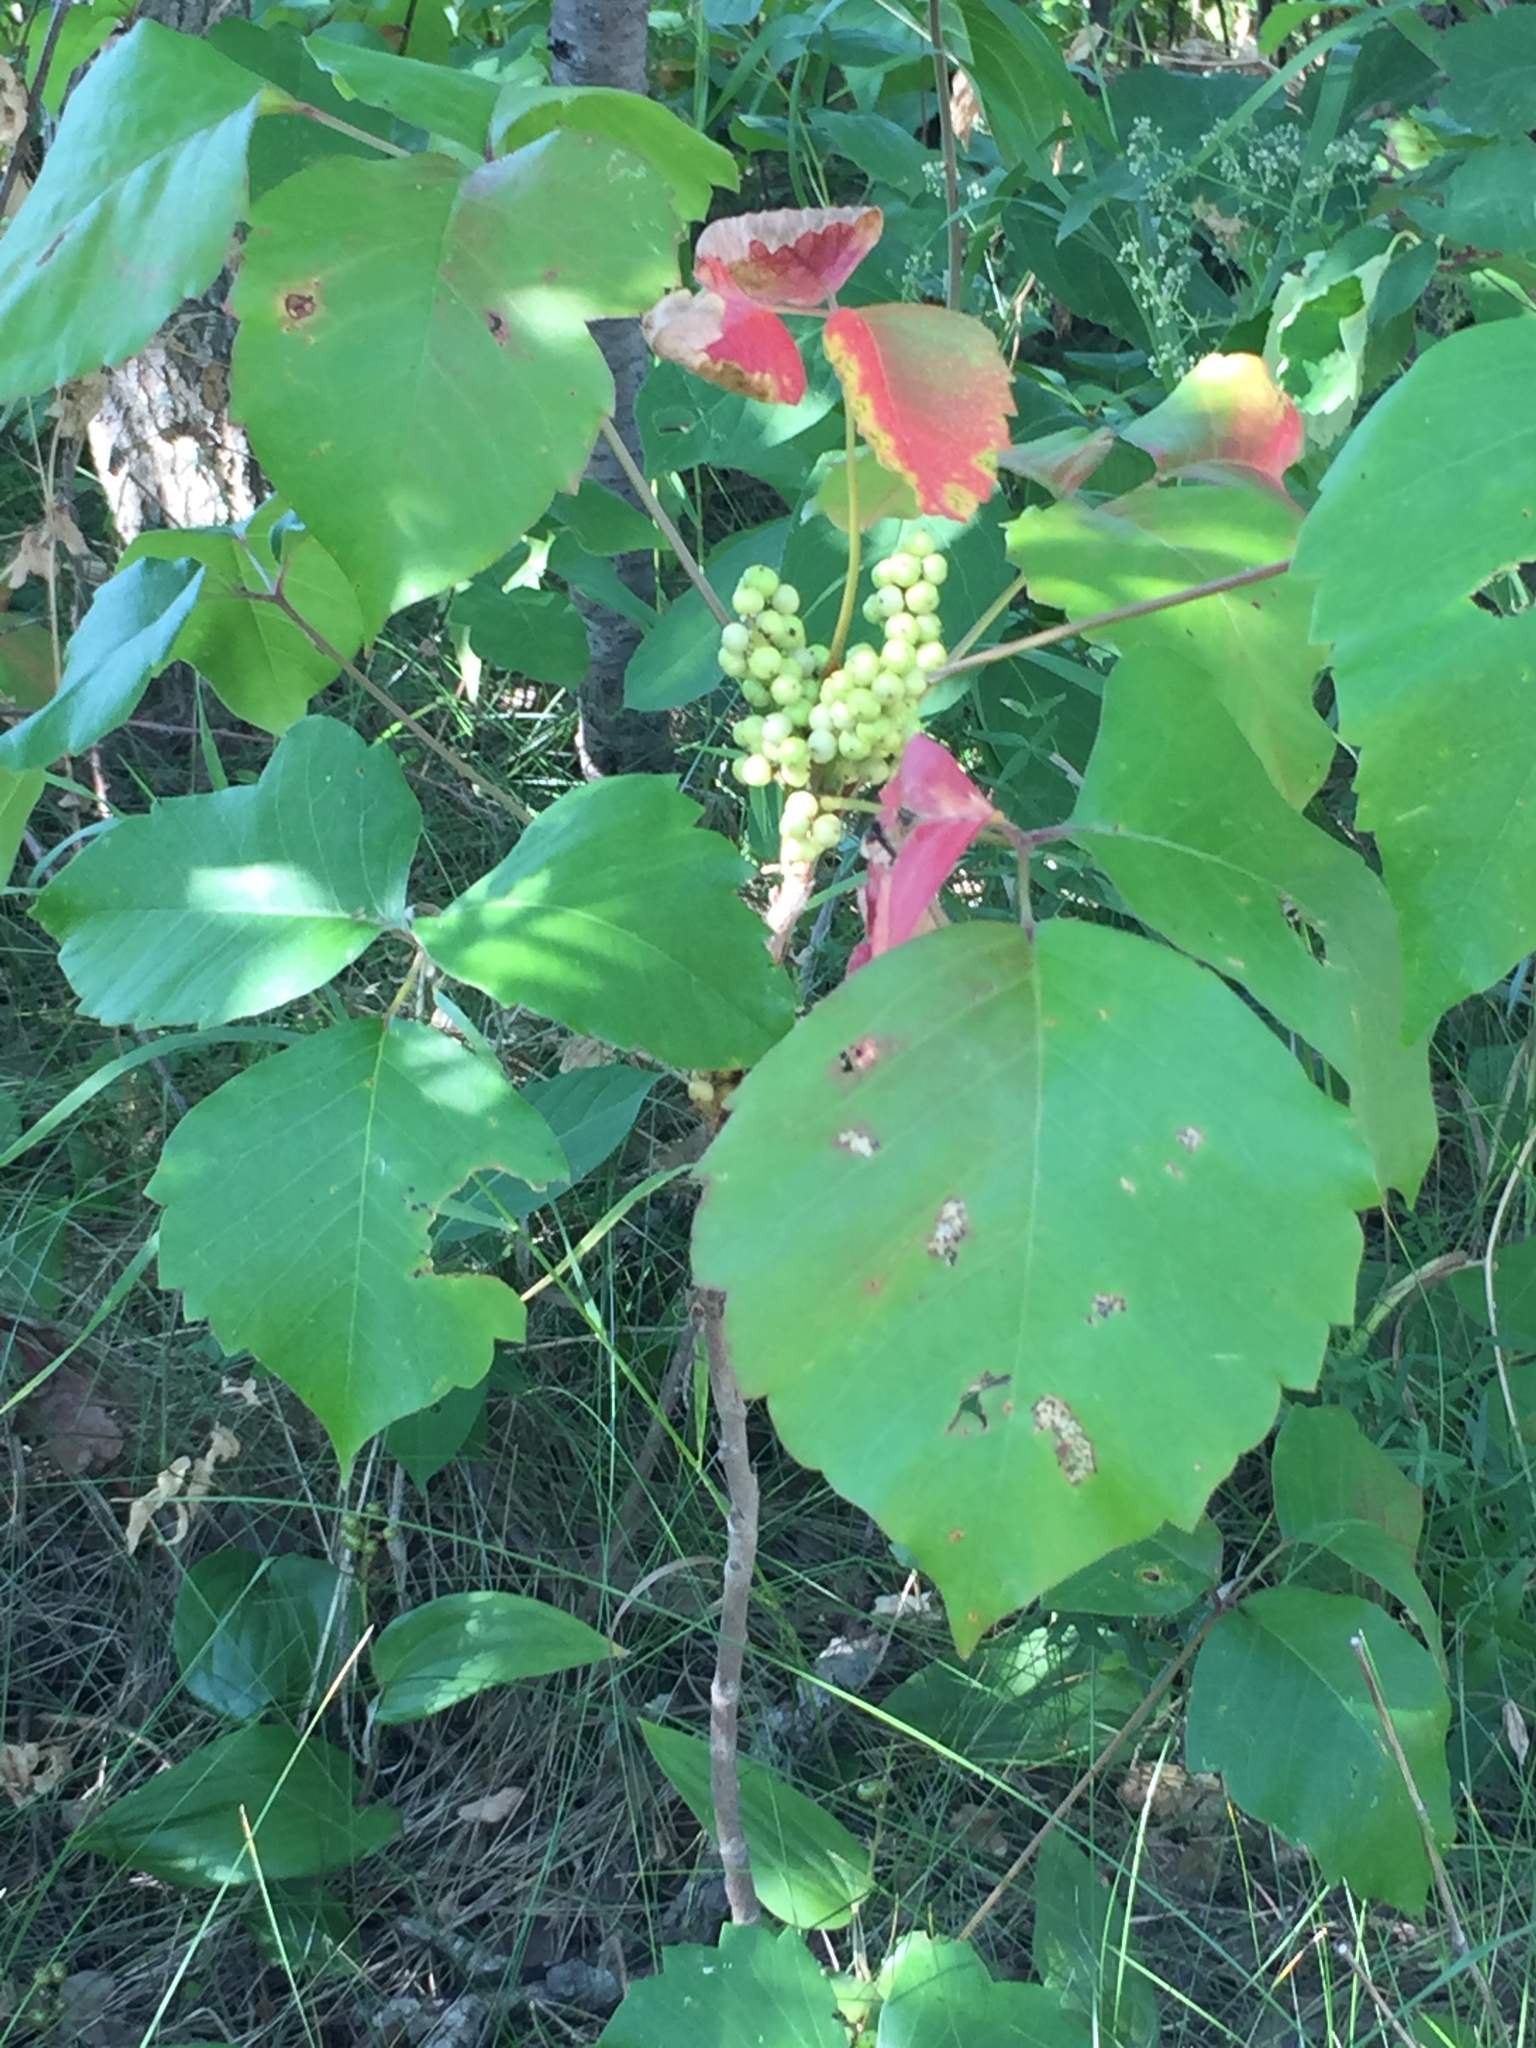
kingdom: Plantae
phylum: Tracheophyta
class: Magnoliopsida
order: Sapindales
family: Anacardiaceae
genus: Toxicodendron
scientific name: Toxicodendron rydbergii
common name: Rydberg's poison-ivy
